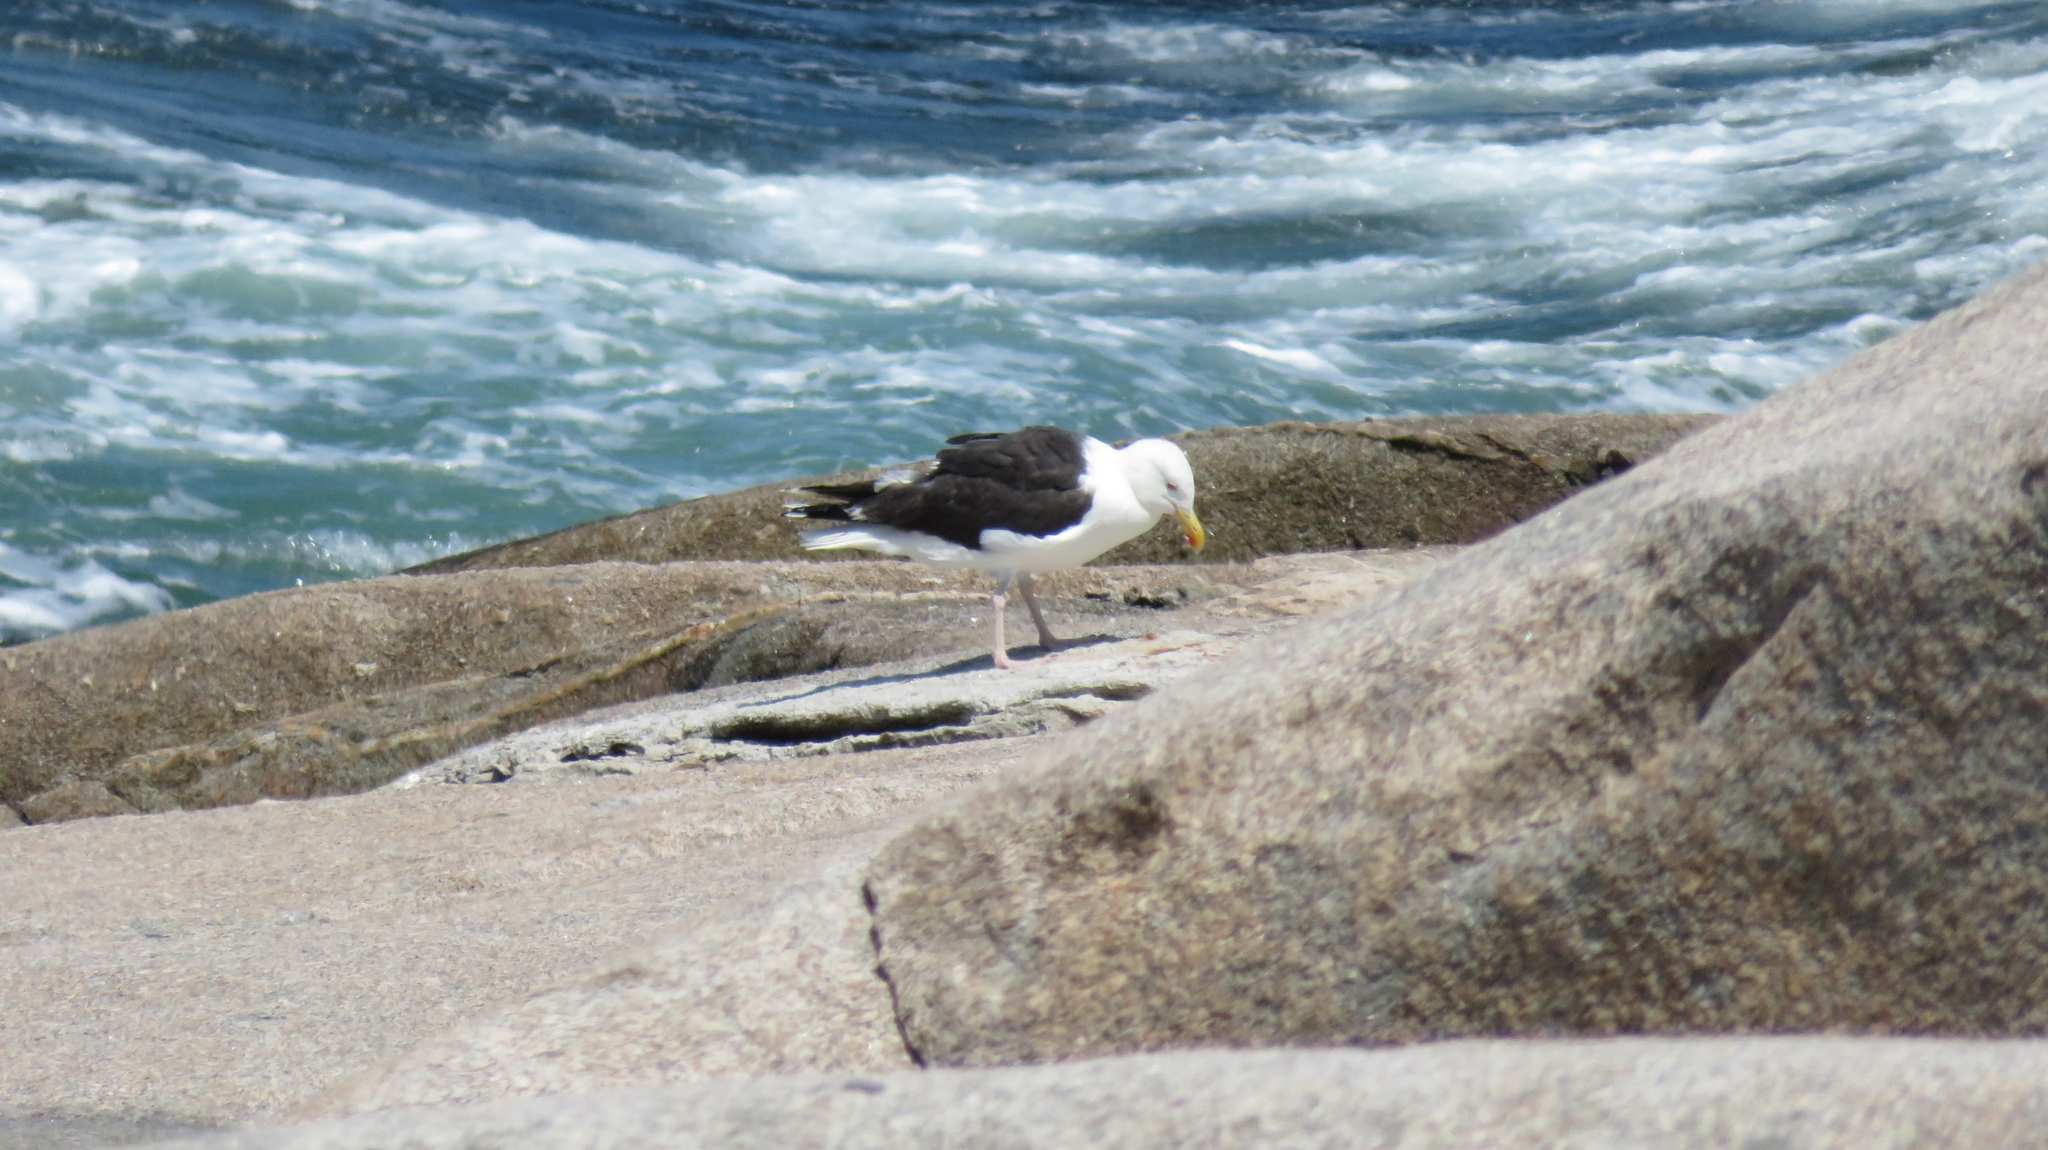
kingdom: Animalia
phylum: Chordata
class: Aves
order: Charadriiformes
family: Laridae
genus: Larus
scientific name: Larus marinus
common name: Great black-backed gull
